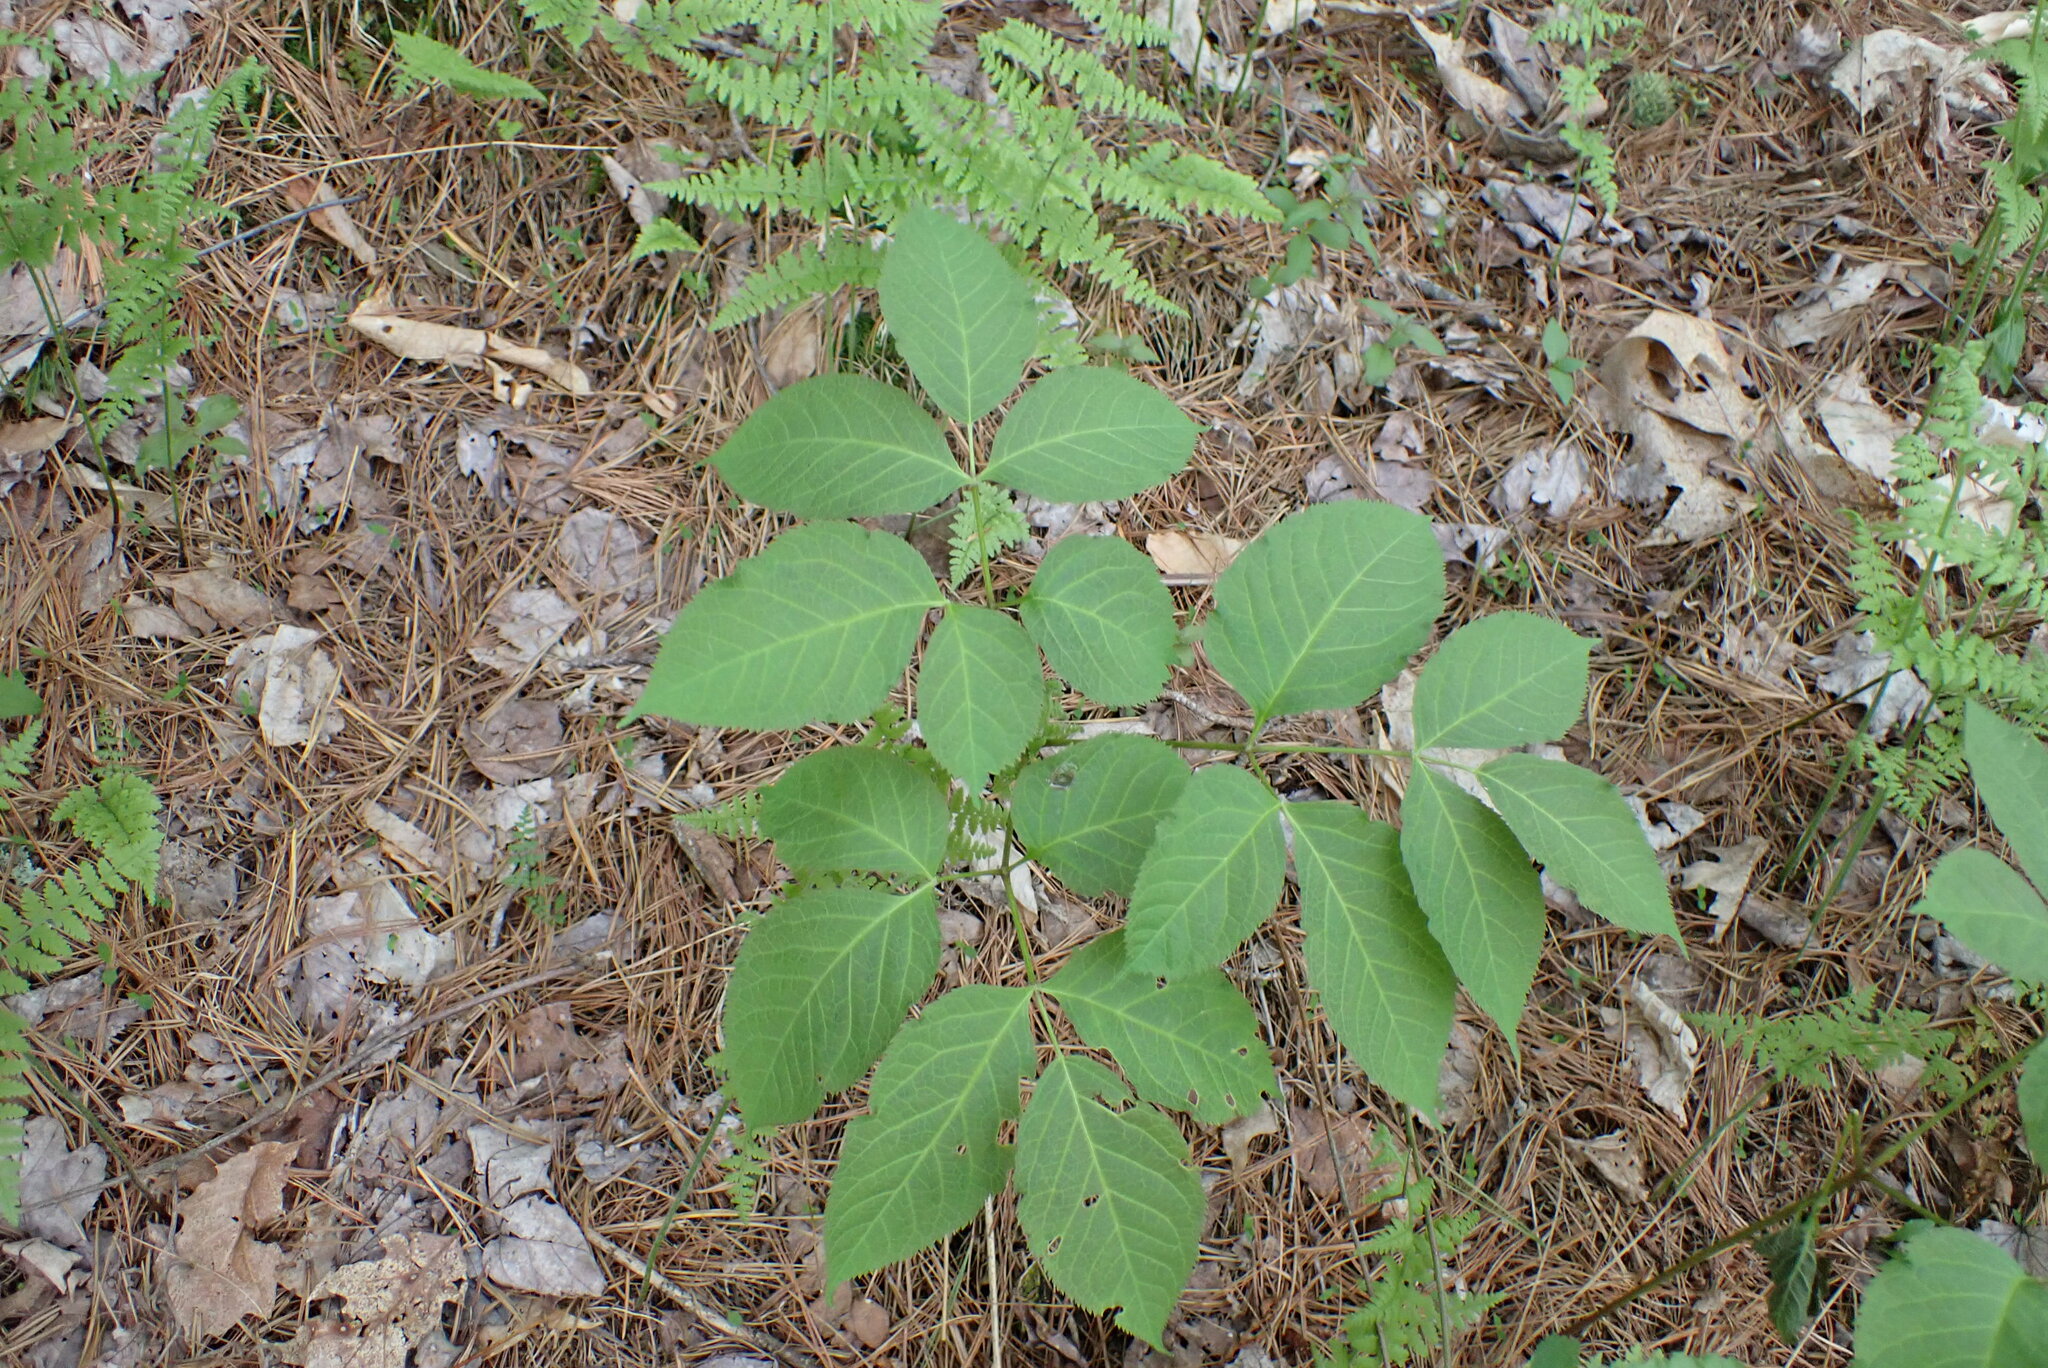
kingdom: Plantae
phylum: Tracheophyta
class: Magnoliopsida
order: Apiales
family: Araliaceae
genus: Aralia
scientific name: Aralia nudicaulis
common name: Wild sarsaparilla
